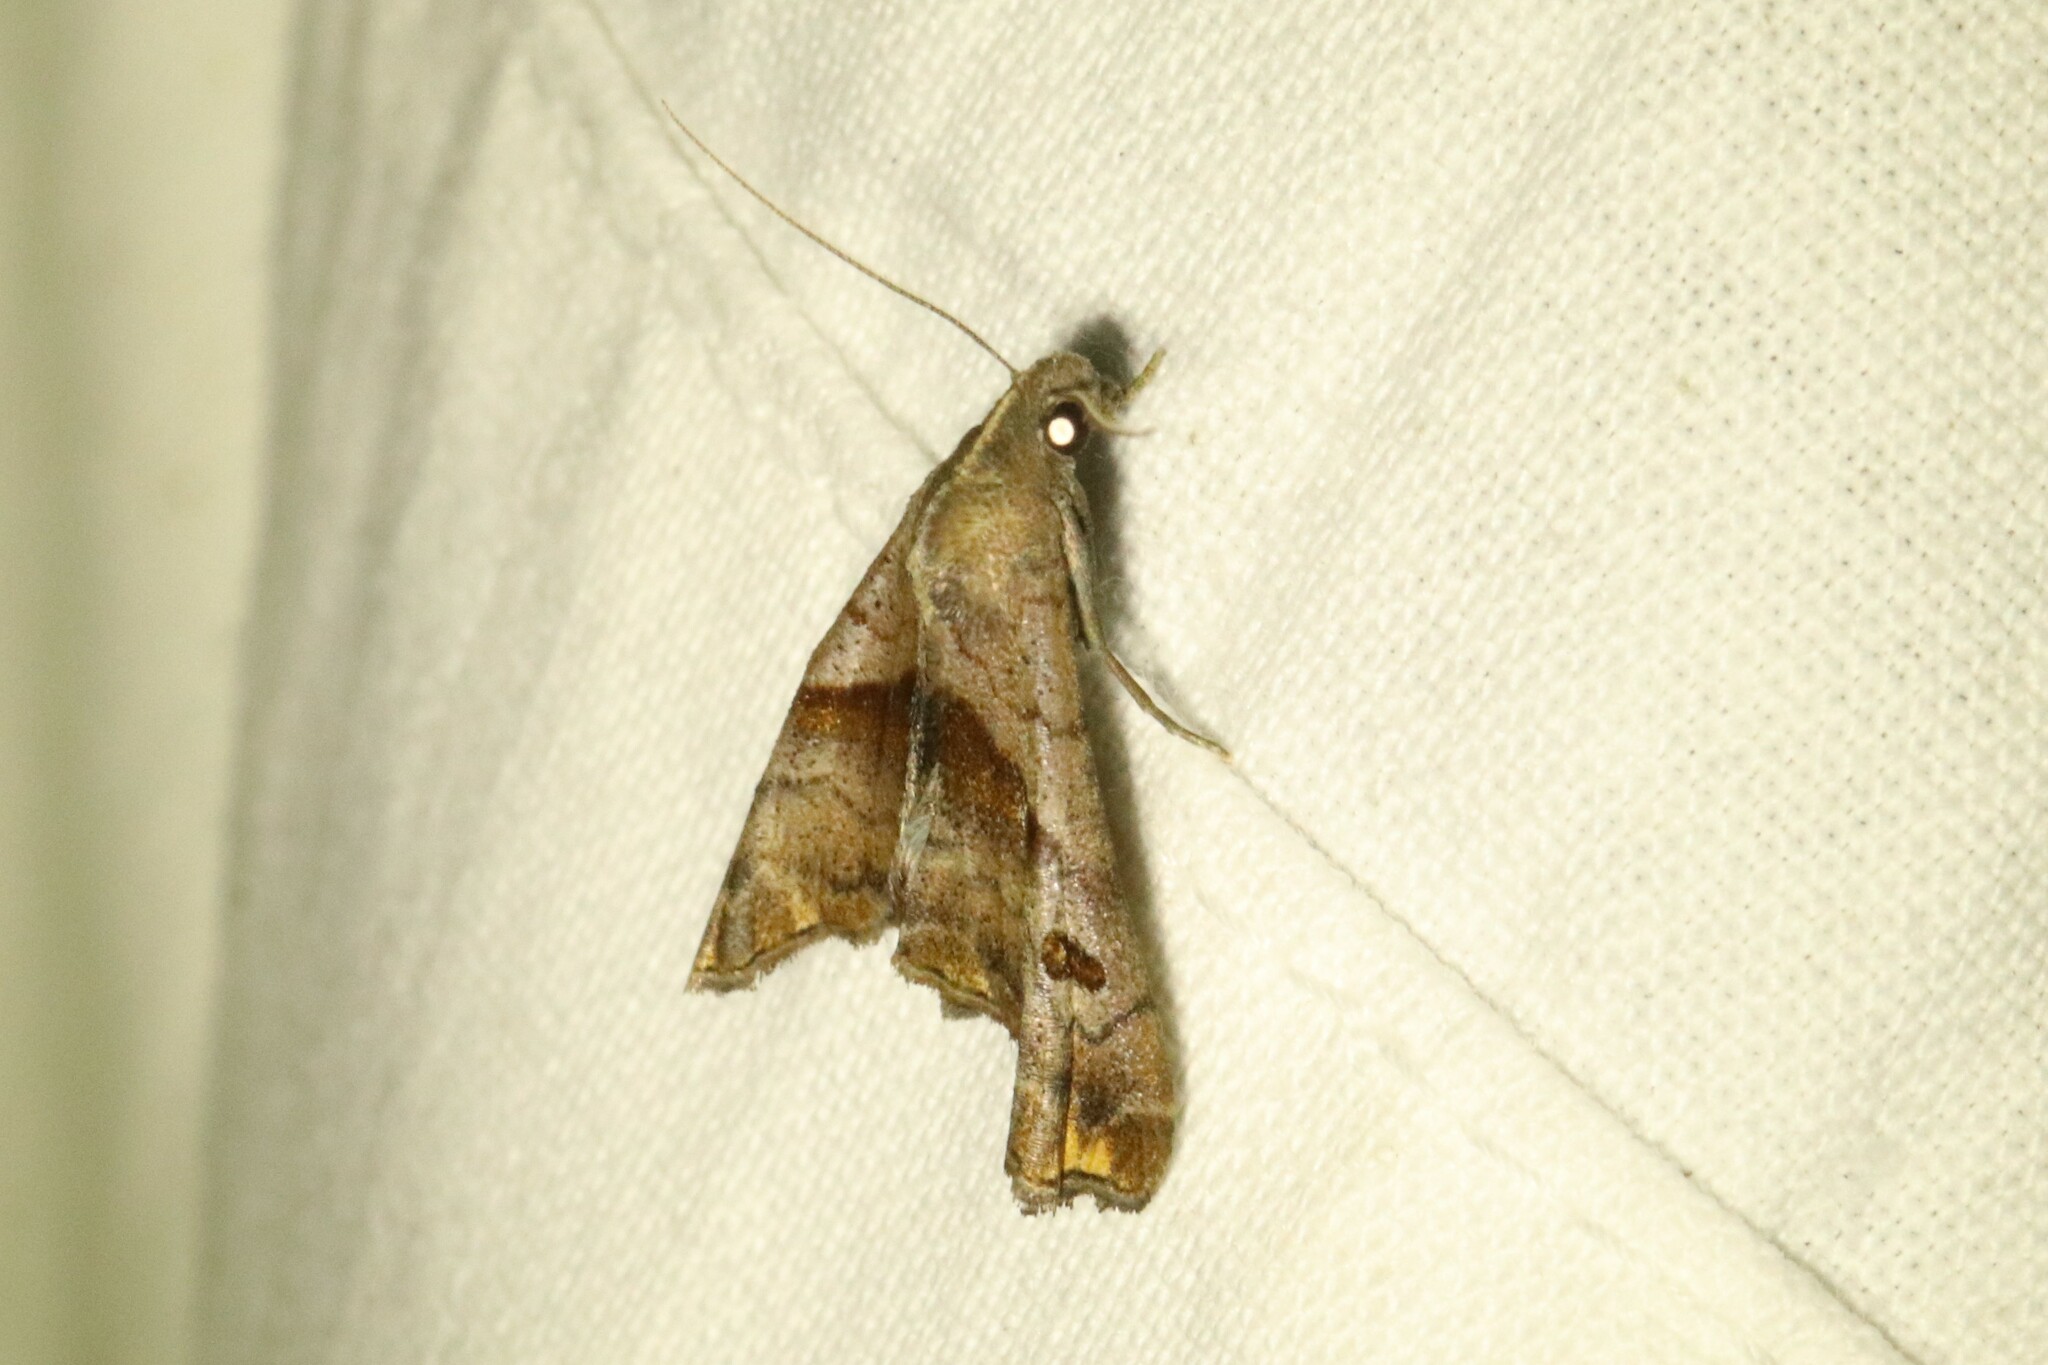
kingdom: Animalia
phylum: Arthropoda
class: Insecta
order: Lepidoptera
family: Erebidae
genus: Palthis
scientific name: Palthis angulalis
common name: Dark-spotted palthis moth
